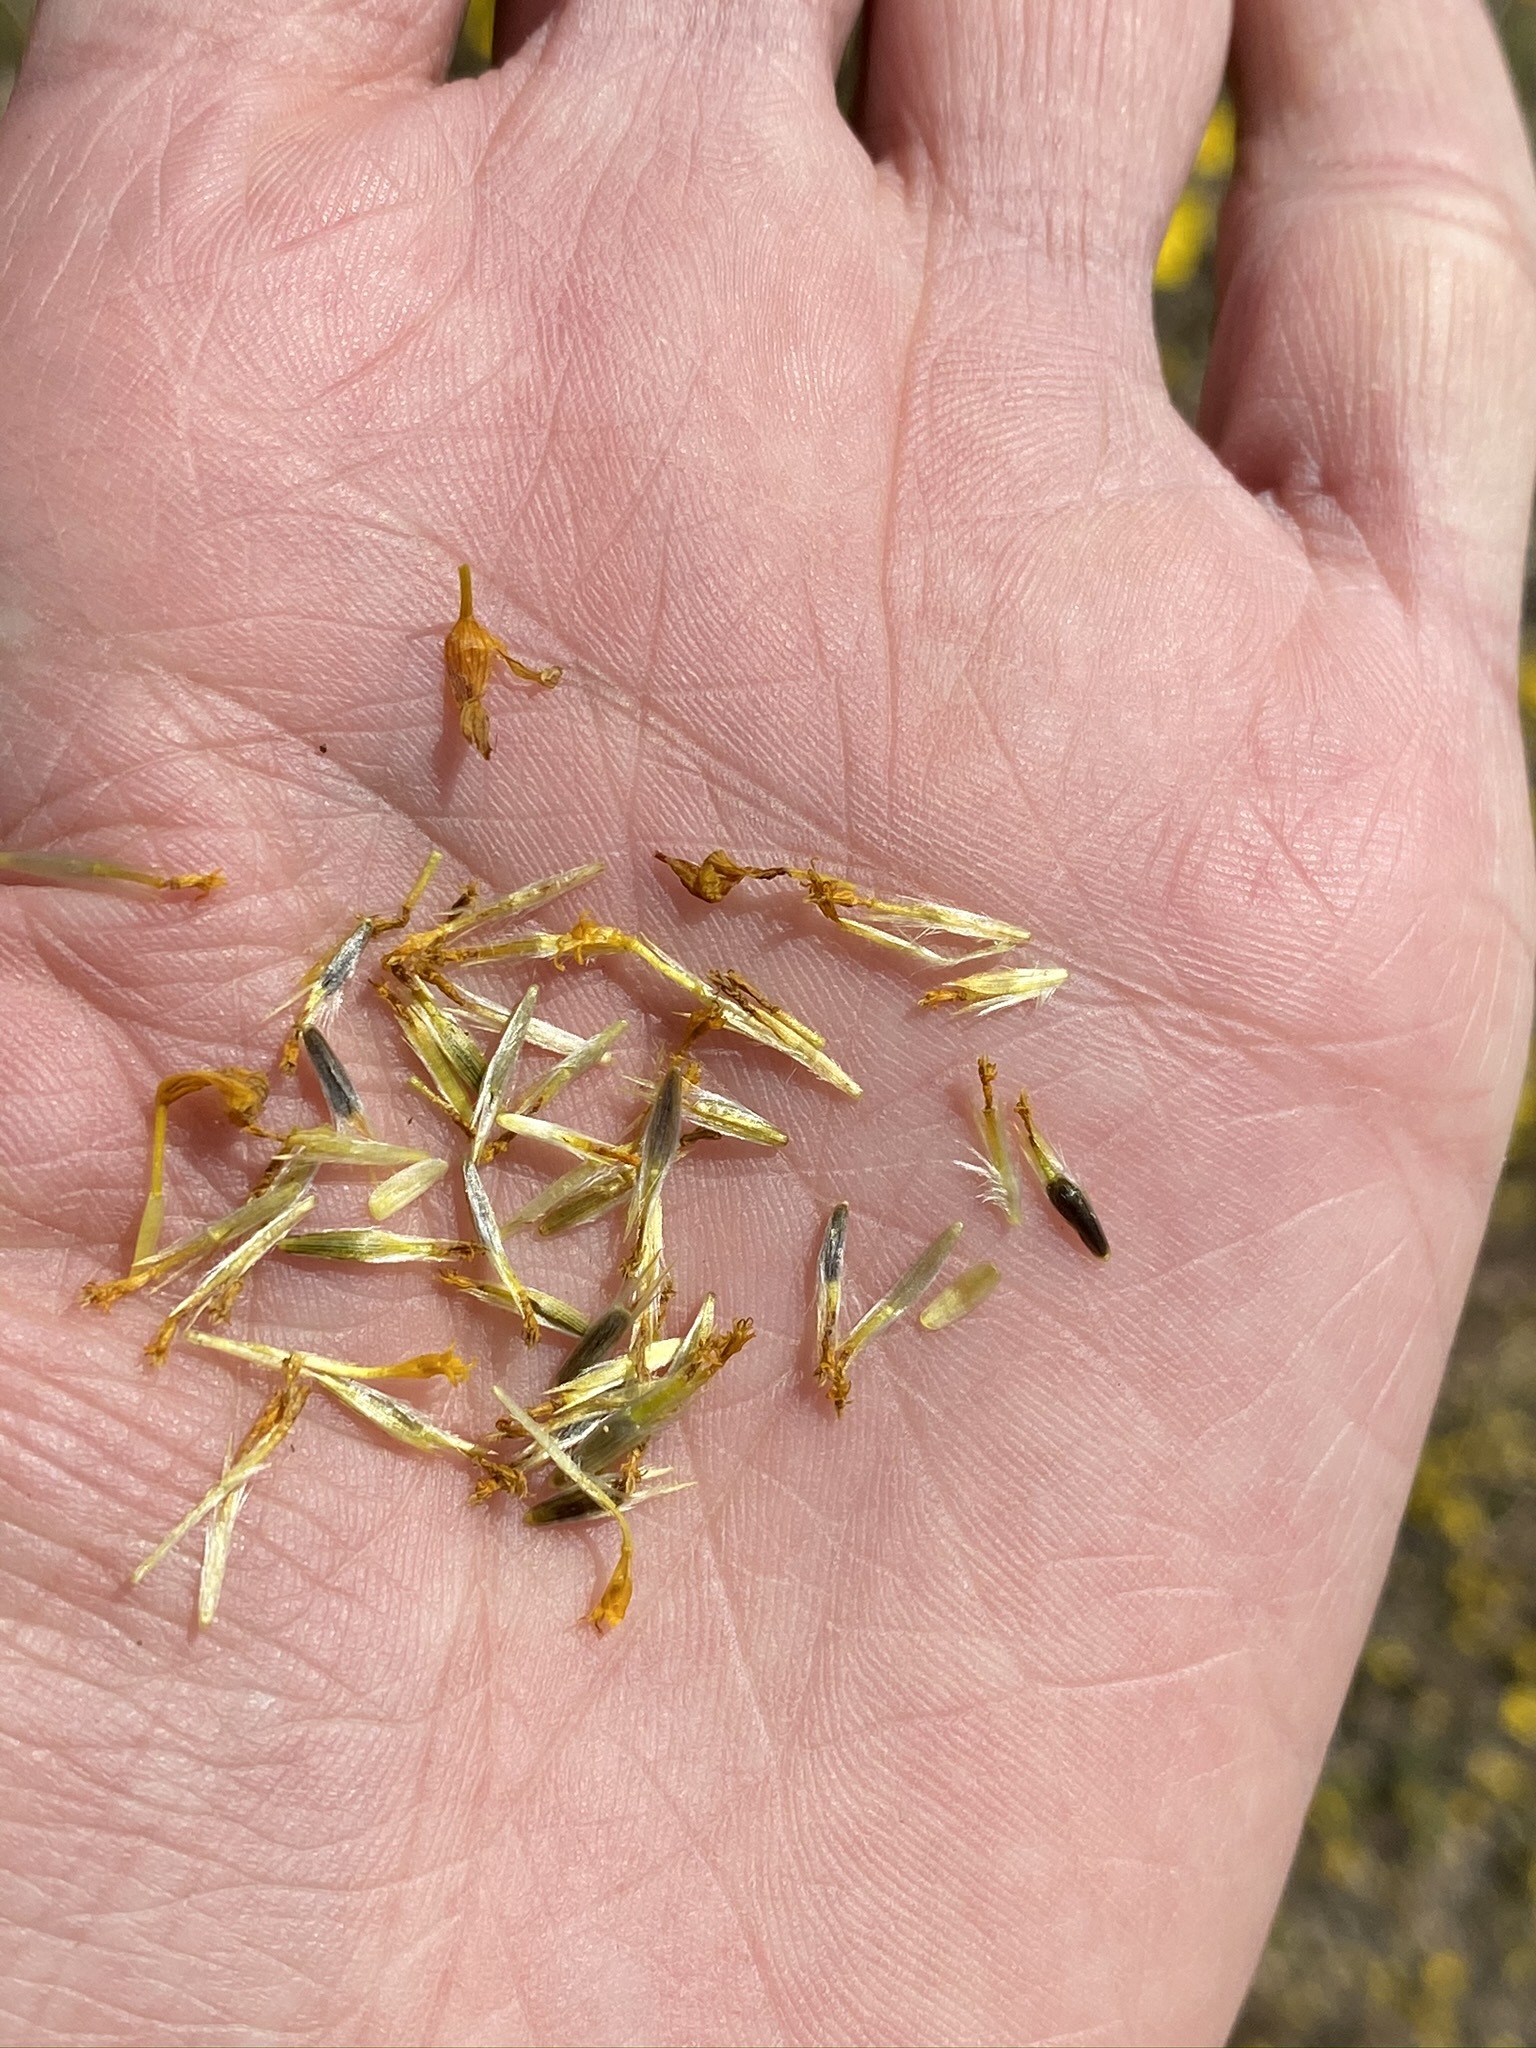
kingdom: Plantae
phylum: Tracheophyta
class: Magnoliopsida
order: Asterales
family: Asteraceae
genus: Coreopsis
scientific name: Coreopsis calliopsidea
